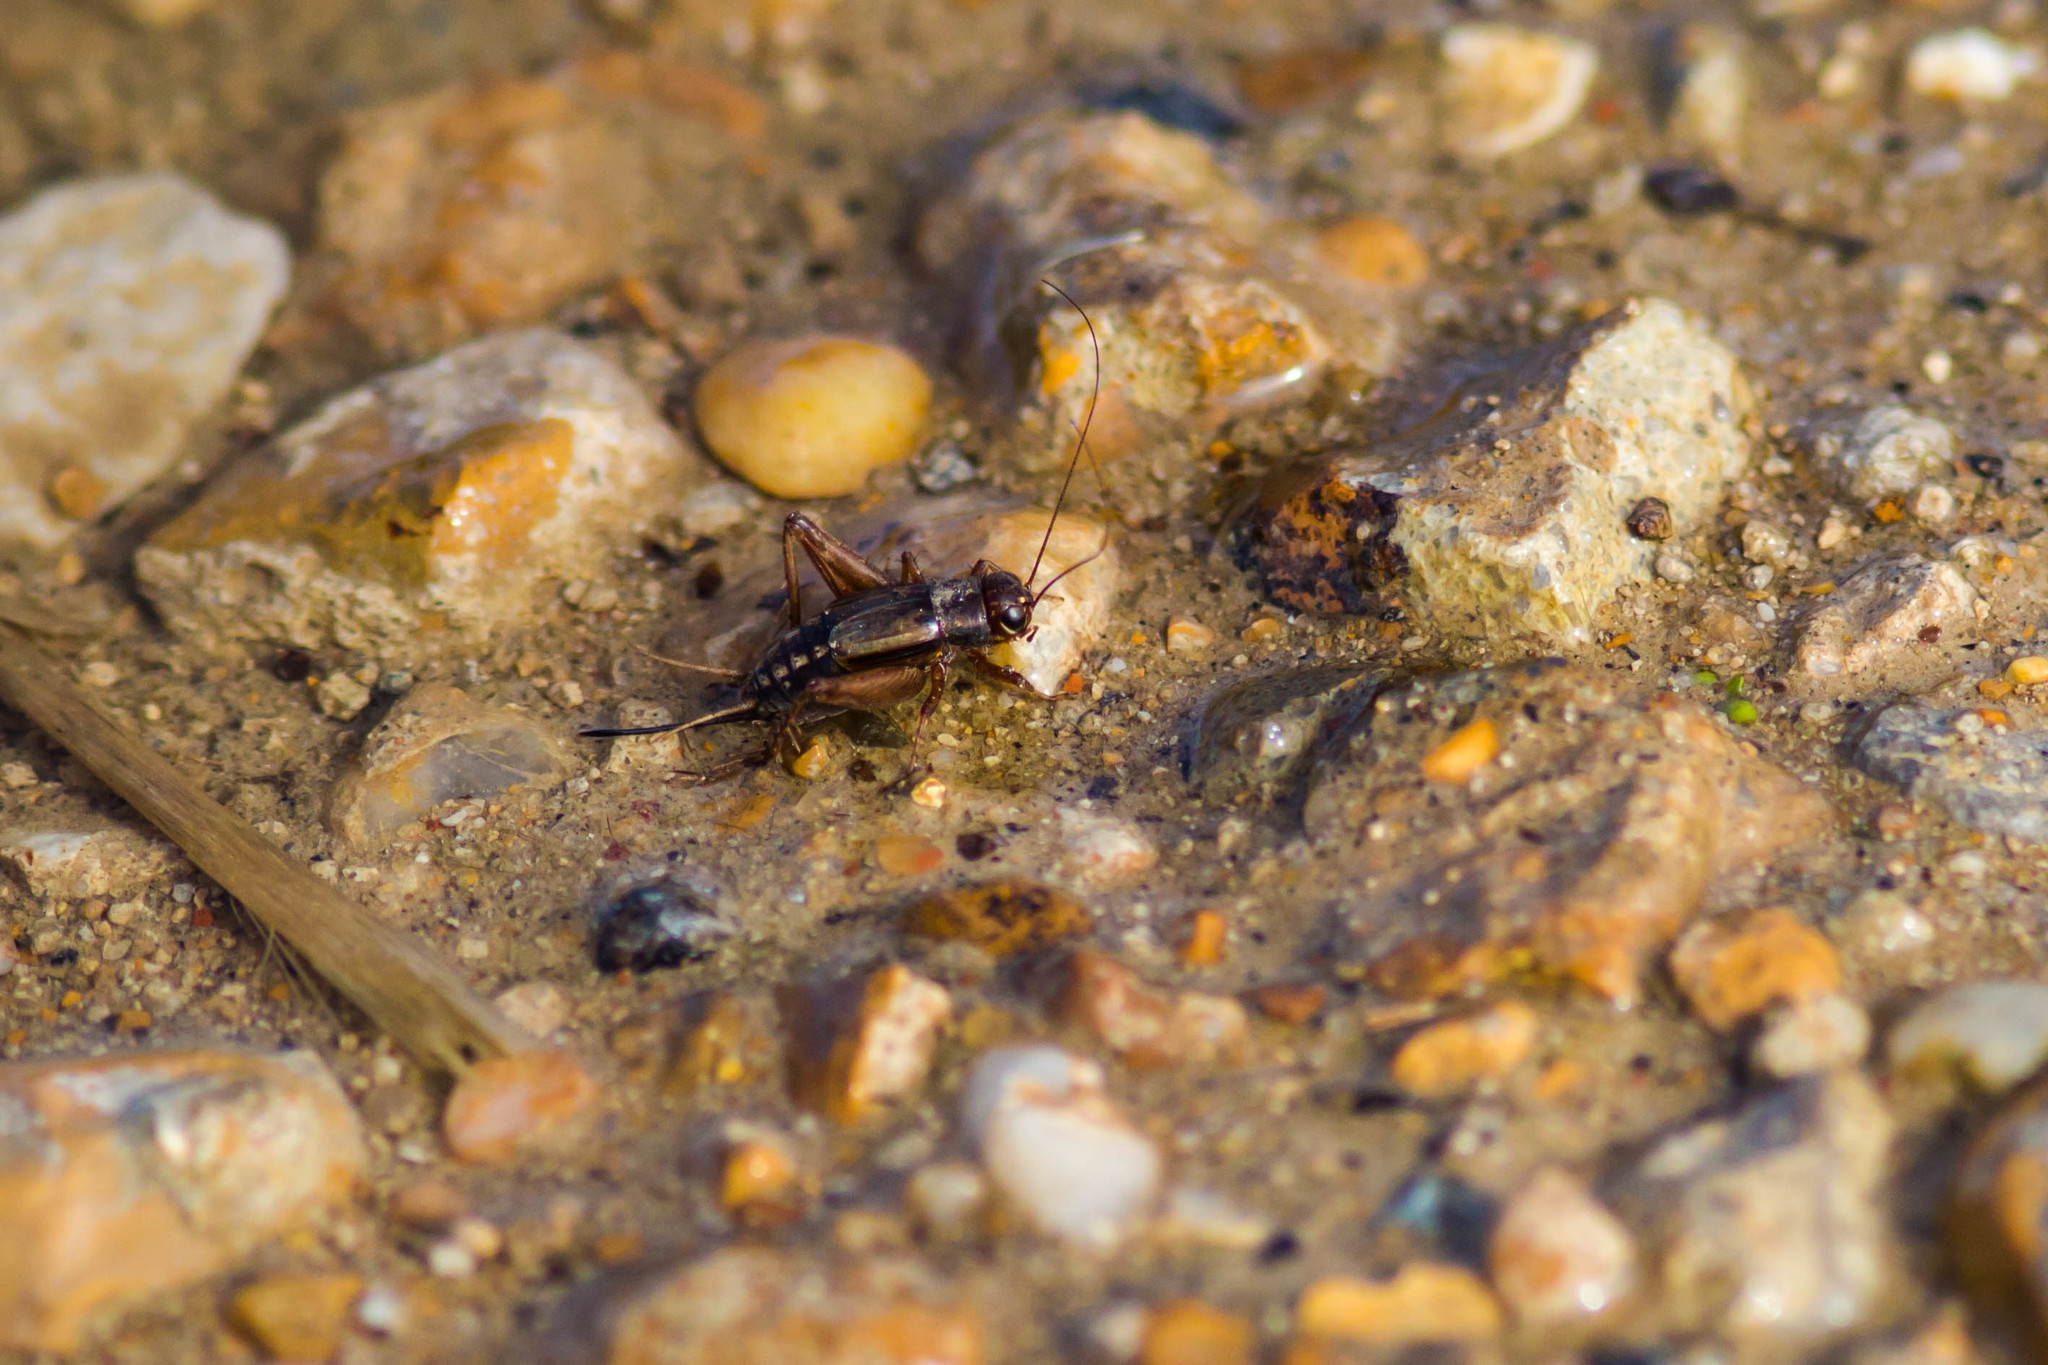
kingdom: Animalia
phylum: Arthropoda
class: Insecta
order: Orthoptera
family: Trigonidiidae
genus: Allonemobius
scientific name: Allonemobius maculatus
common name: Larger spotted ground cricket
